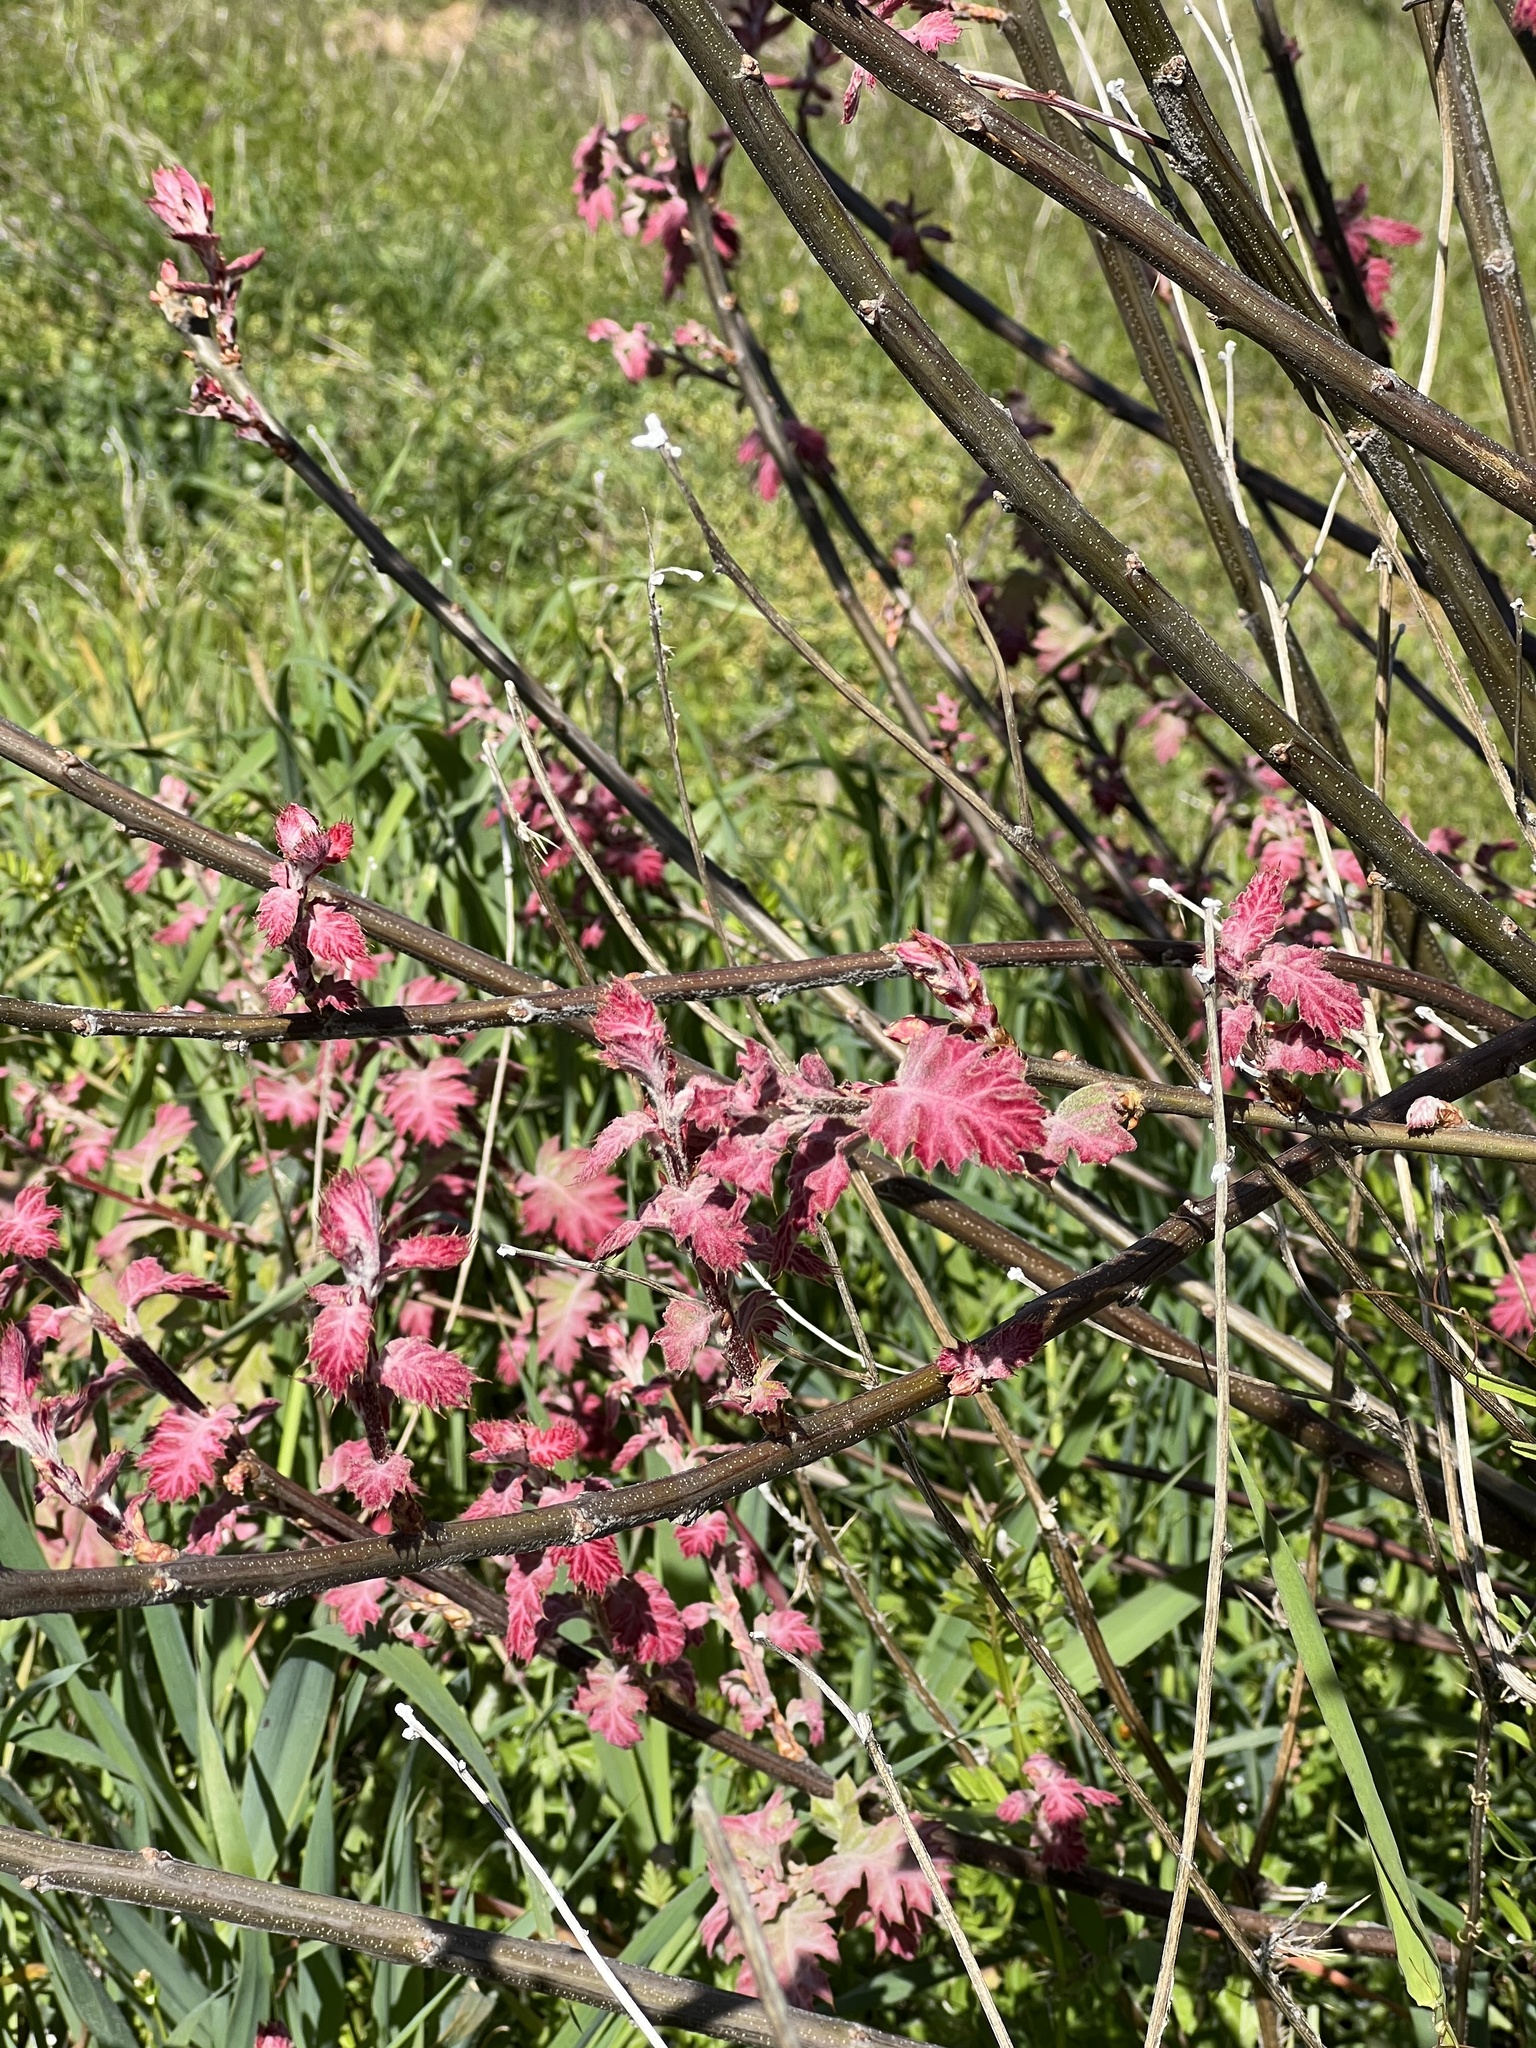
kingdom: Plantae
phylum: Tracheophyta
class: Magnoliopsida
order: Fagales
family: Fagaceae
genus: Quercus
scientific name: Quercus kelloggii
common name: California black oak
